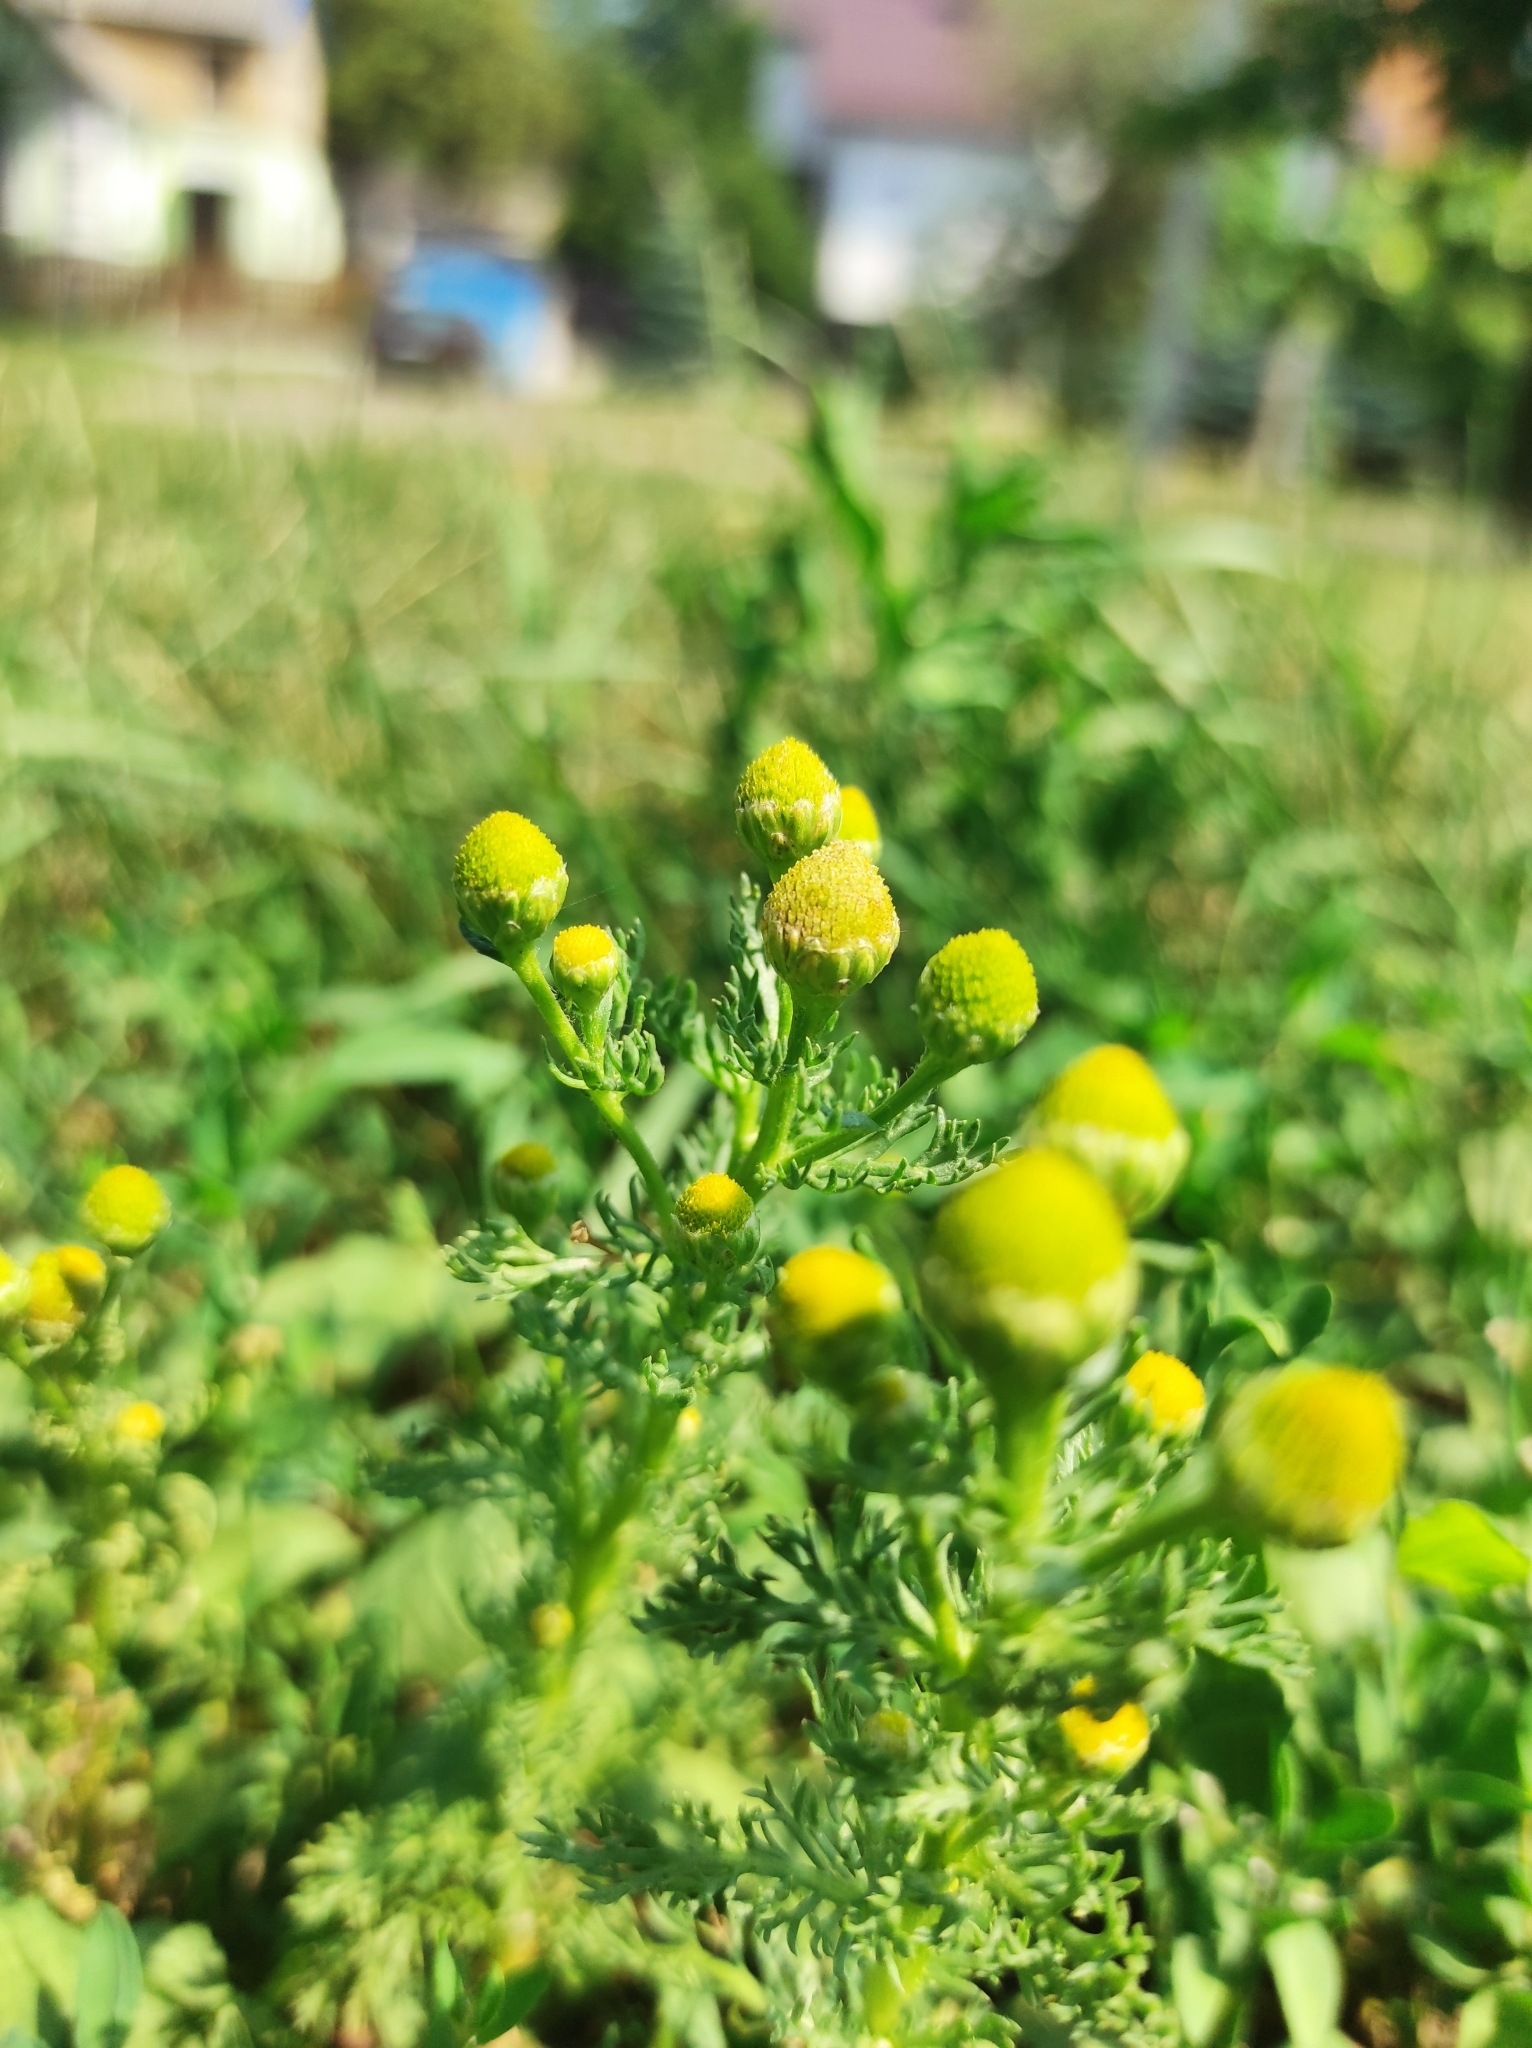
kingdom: Plantae
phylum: Tracheophyta
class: Magnoliopsida
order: Asterales
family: Asteraceae
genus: Matricaria
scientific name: Matricaria discoidea
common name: Disc mayweed
